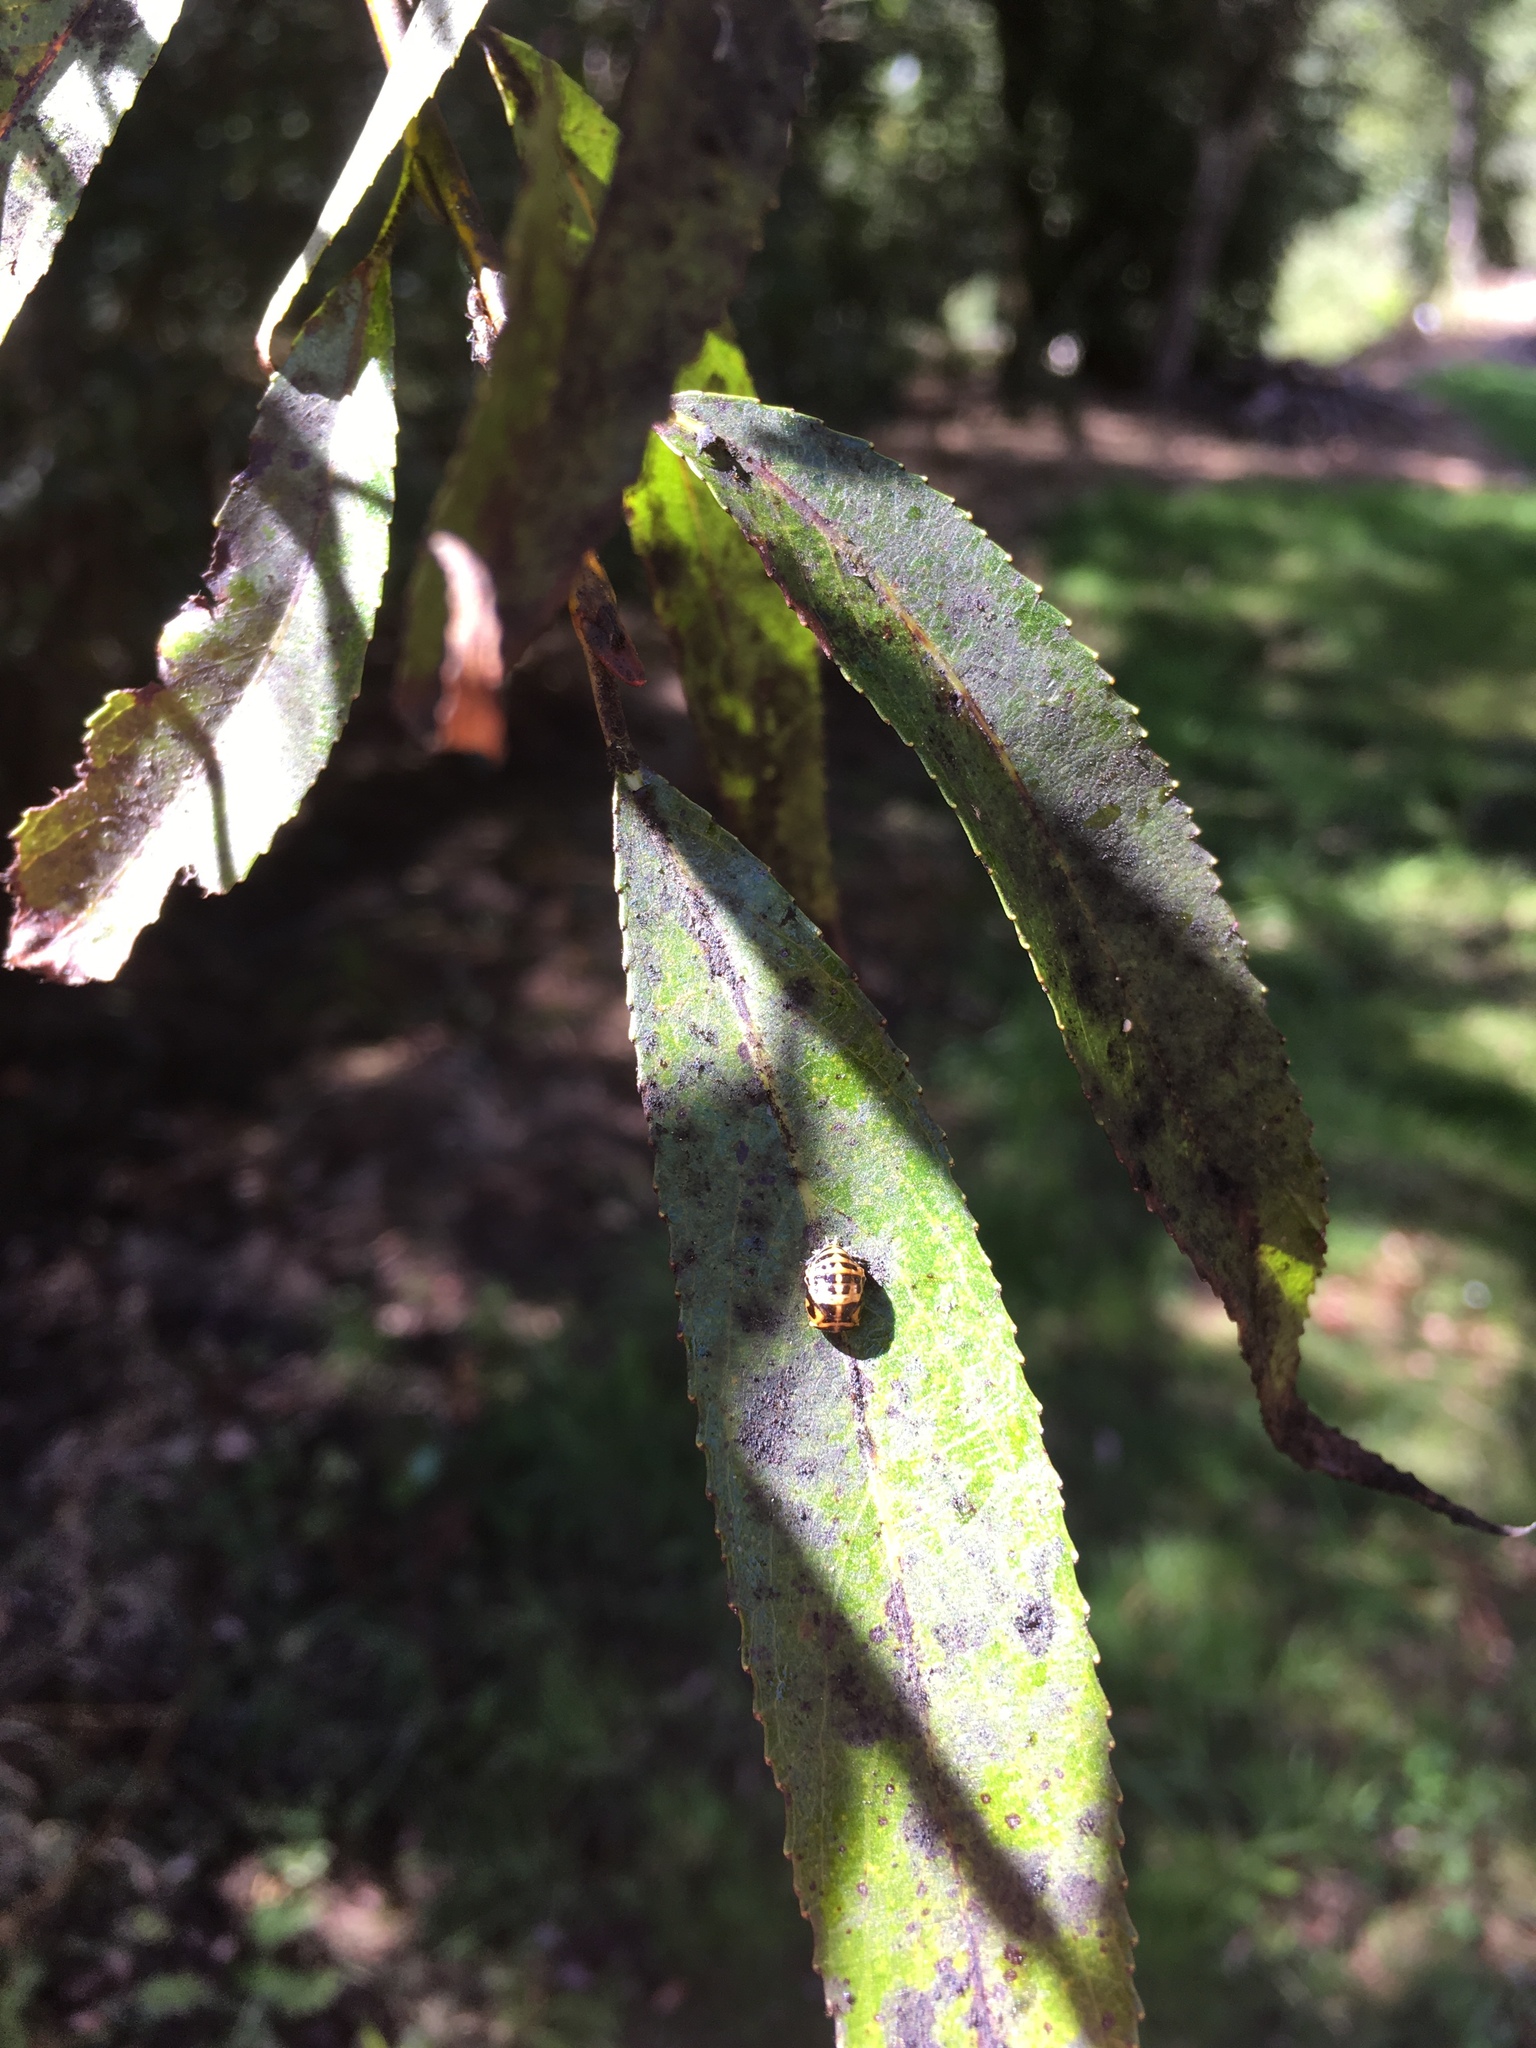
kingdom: Animalia
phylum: Arthropoda
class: Insecta
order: Coleoptera
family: Coccinellidae
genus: Harmonia
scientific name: Harmonia conformis
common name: Common spotted ladybird beetle
